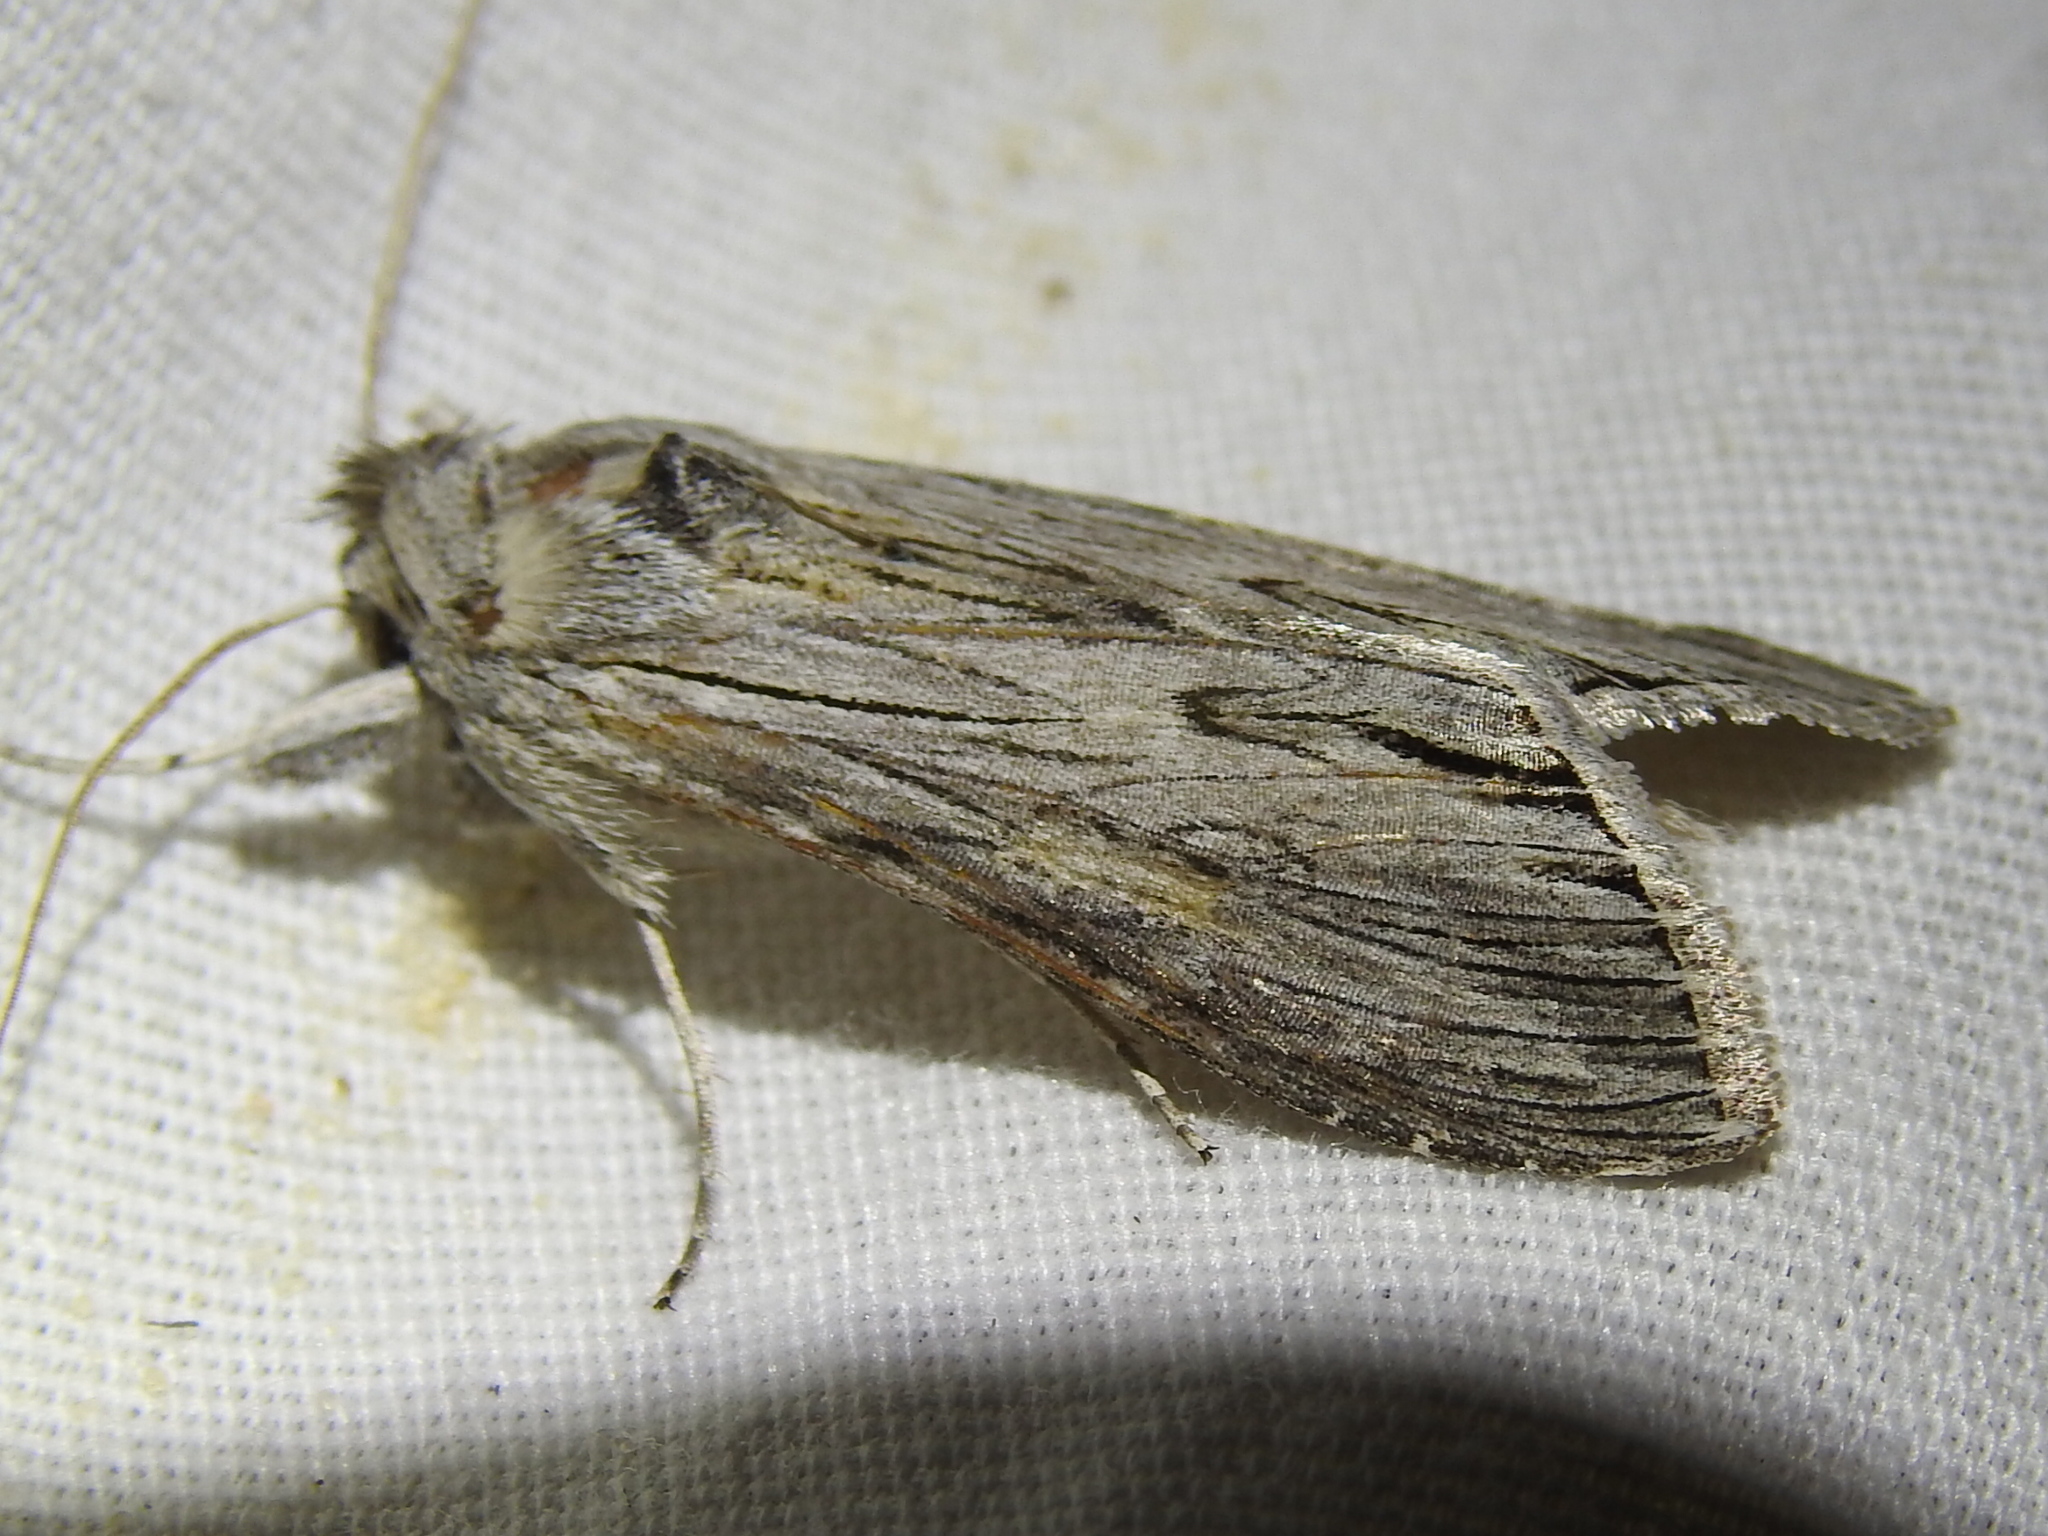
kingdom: Animalia
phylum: Arthropoda
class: Insecta
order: Lepidoptera
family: Noctuidae
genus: Cucullia
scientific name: Cucullia laetifica
